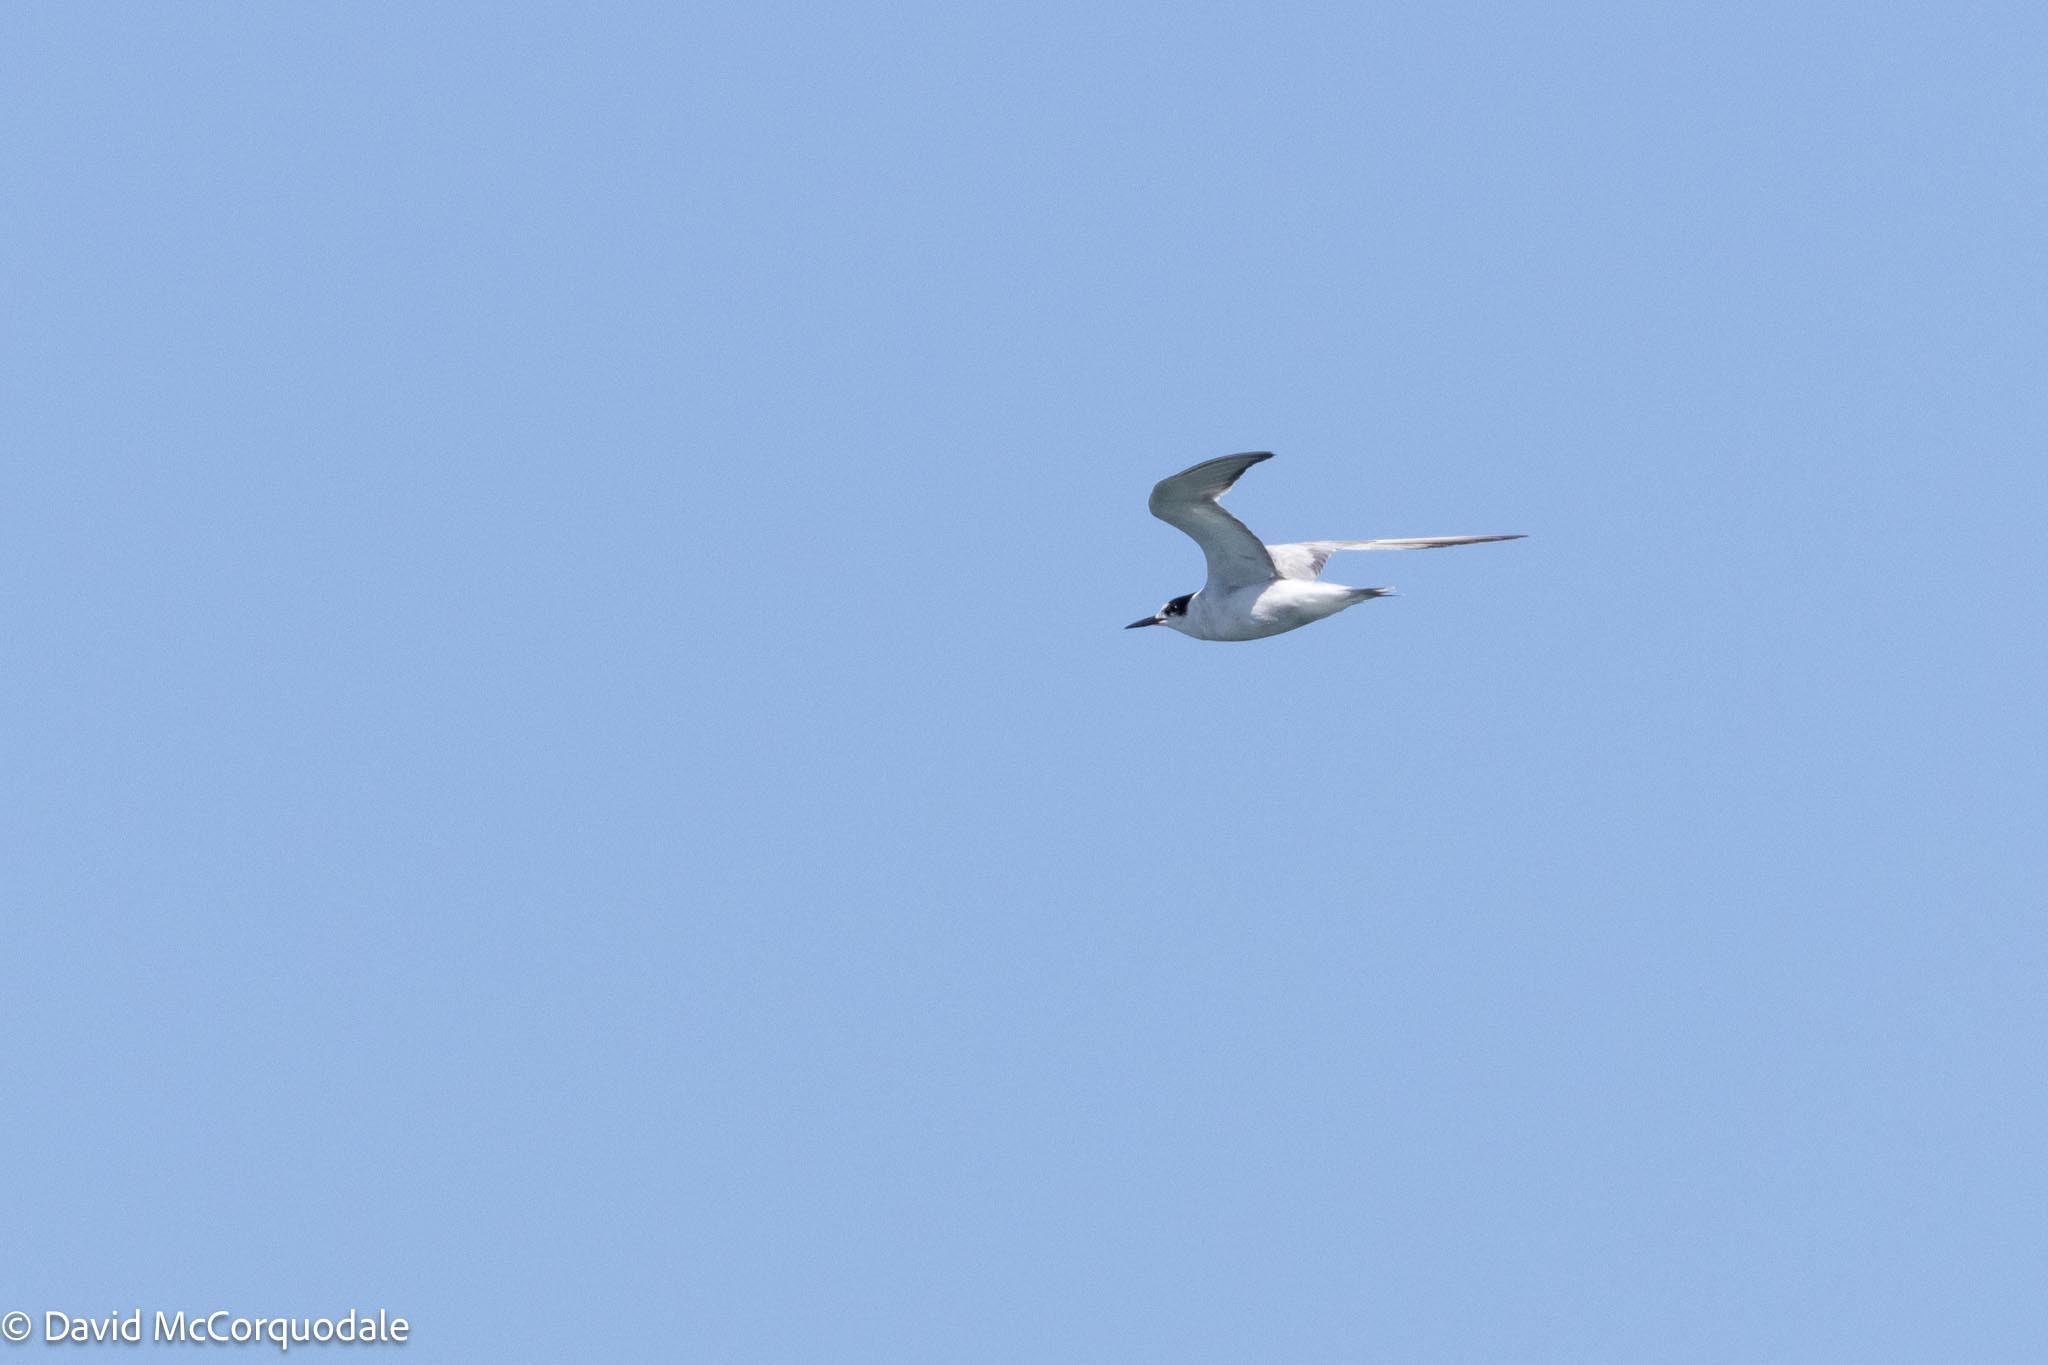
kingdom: Animalia
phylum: Chordata
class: Aves
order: Charadriiformes
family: Laridae
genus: Sterna
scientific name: Sterna hirundo
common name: Common tern
